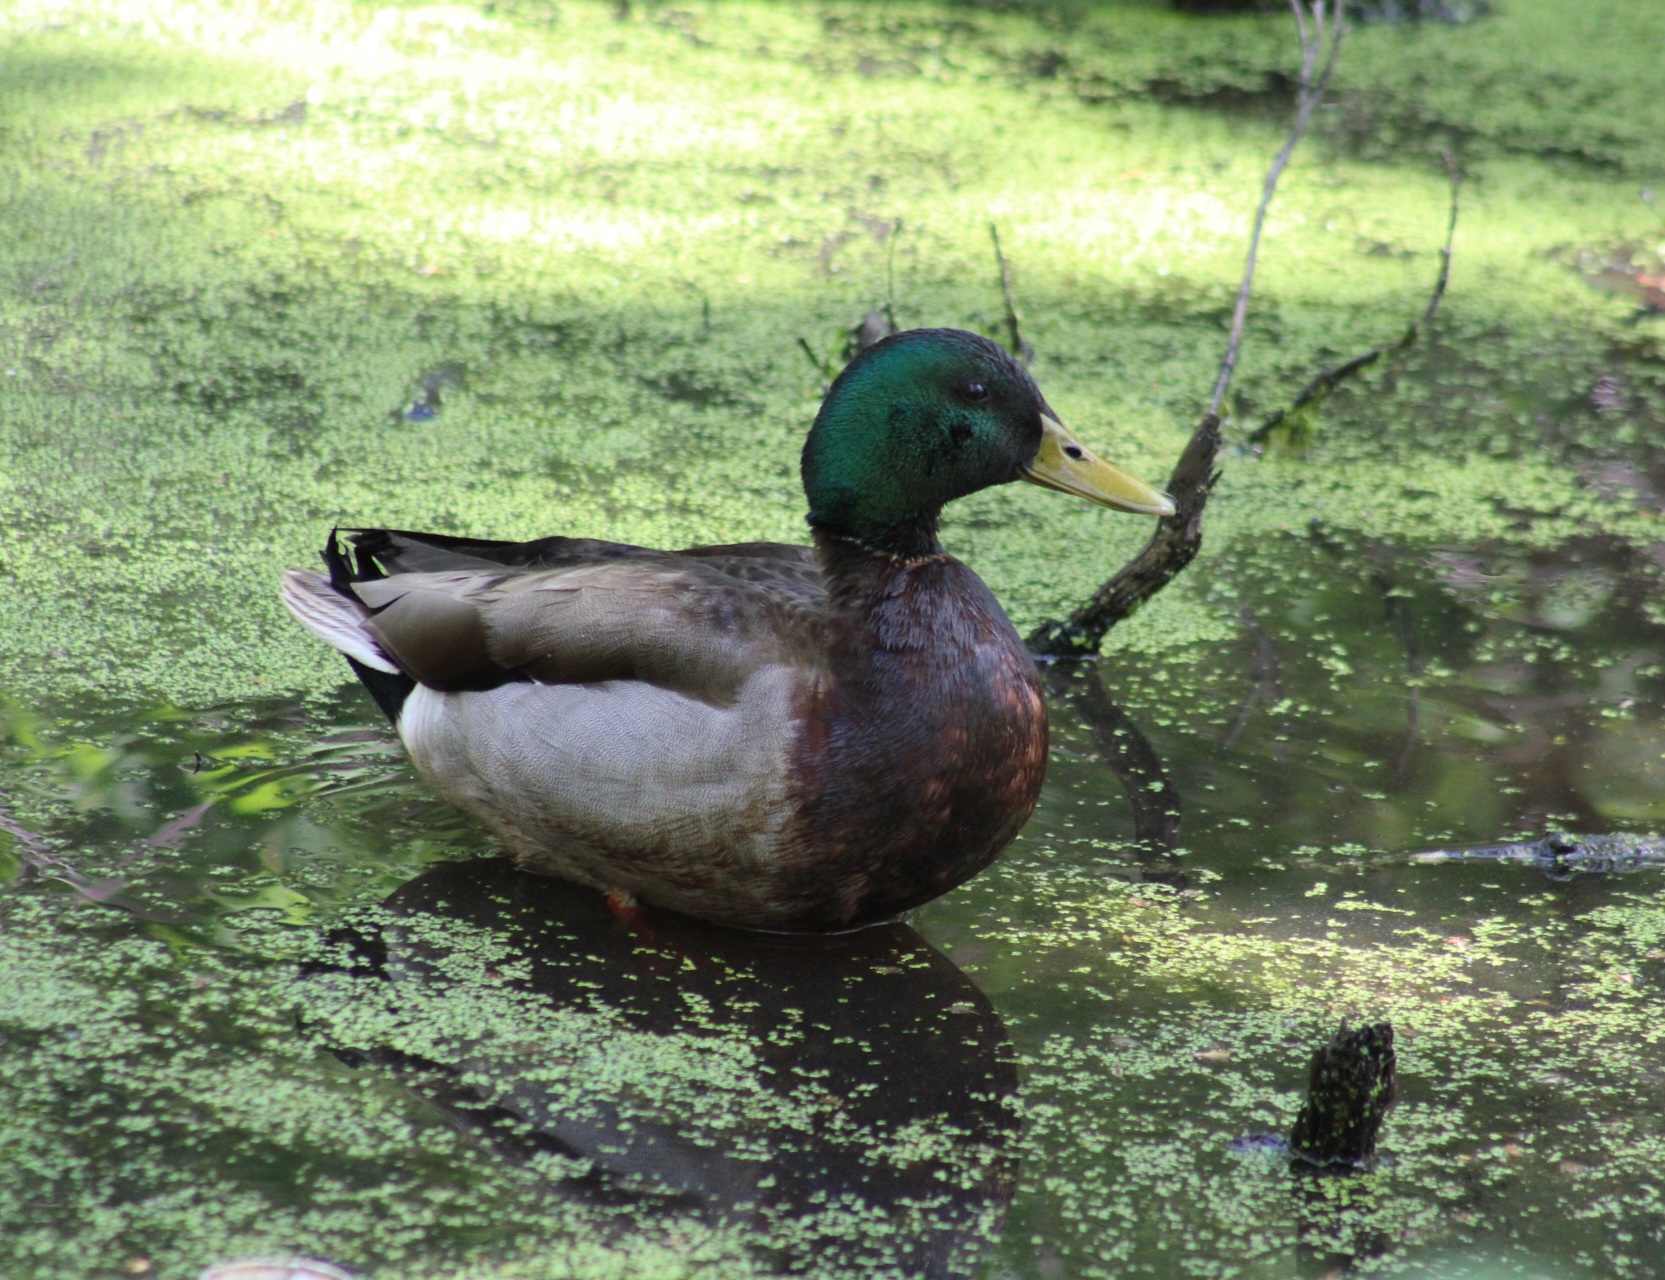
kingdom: Animalia
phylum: Chordata
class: Aves
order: Anseriformes
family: Anatidae
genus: Anas
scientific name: Anas platyrhynchos
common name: Mallard
